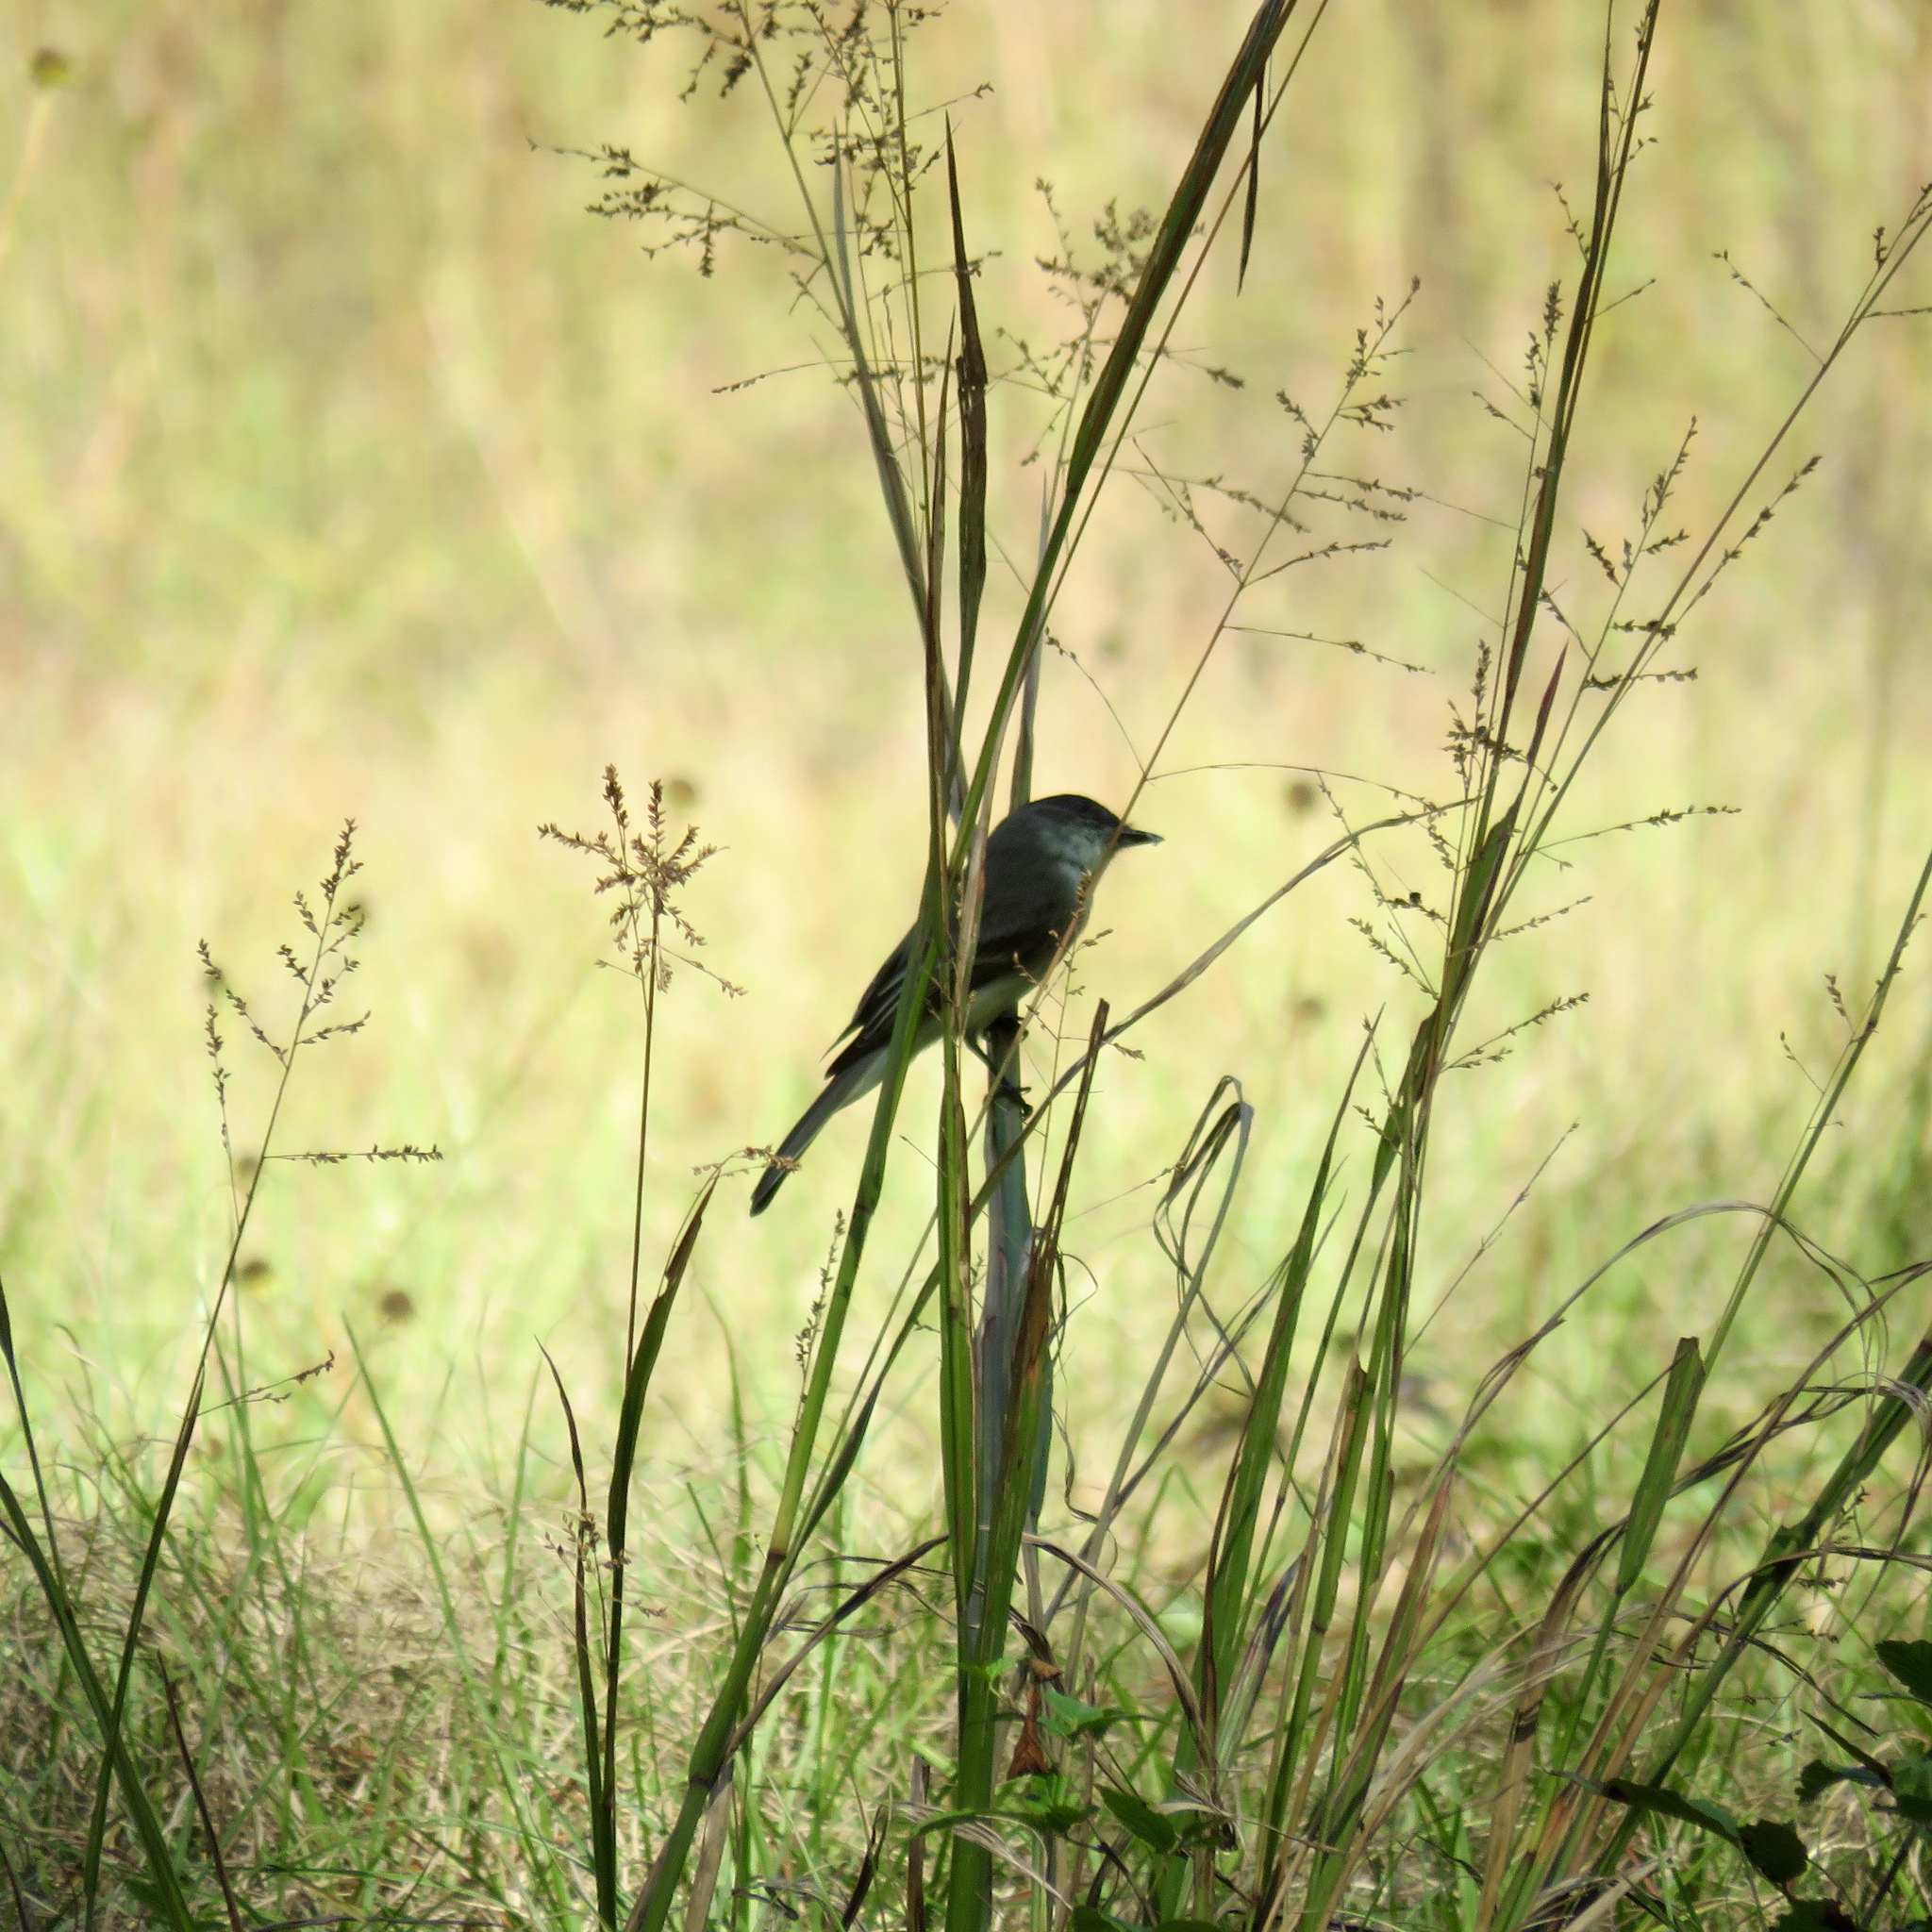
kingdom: Animalia
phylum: Chordata
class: Aves
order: Passeriformes
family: Tyrannidae
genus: Sayornis
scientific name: Sayornis phoebe
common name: Eastern phoebe
